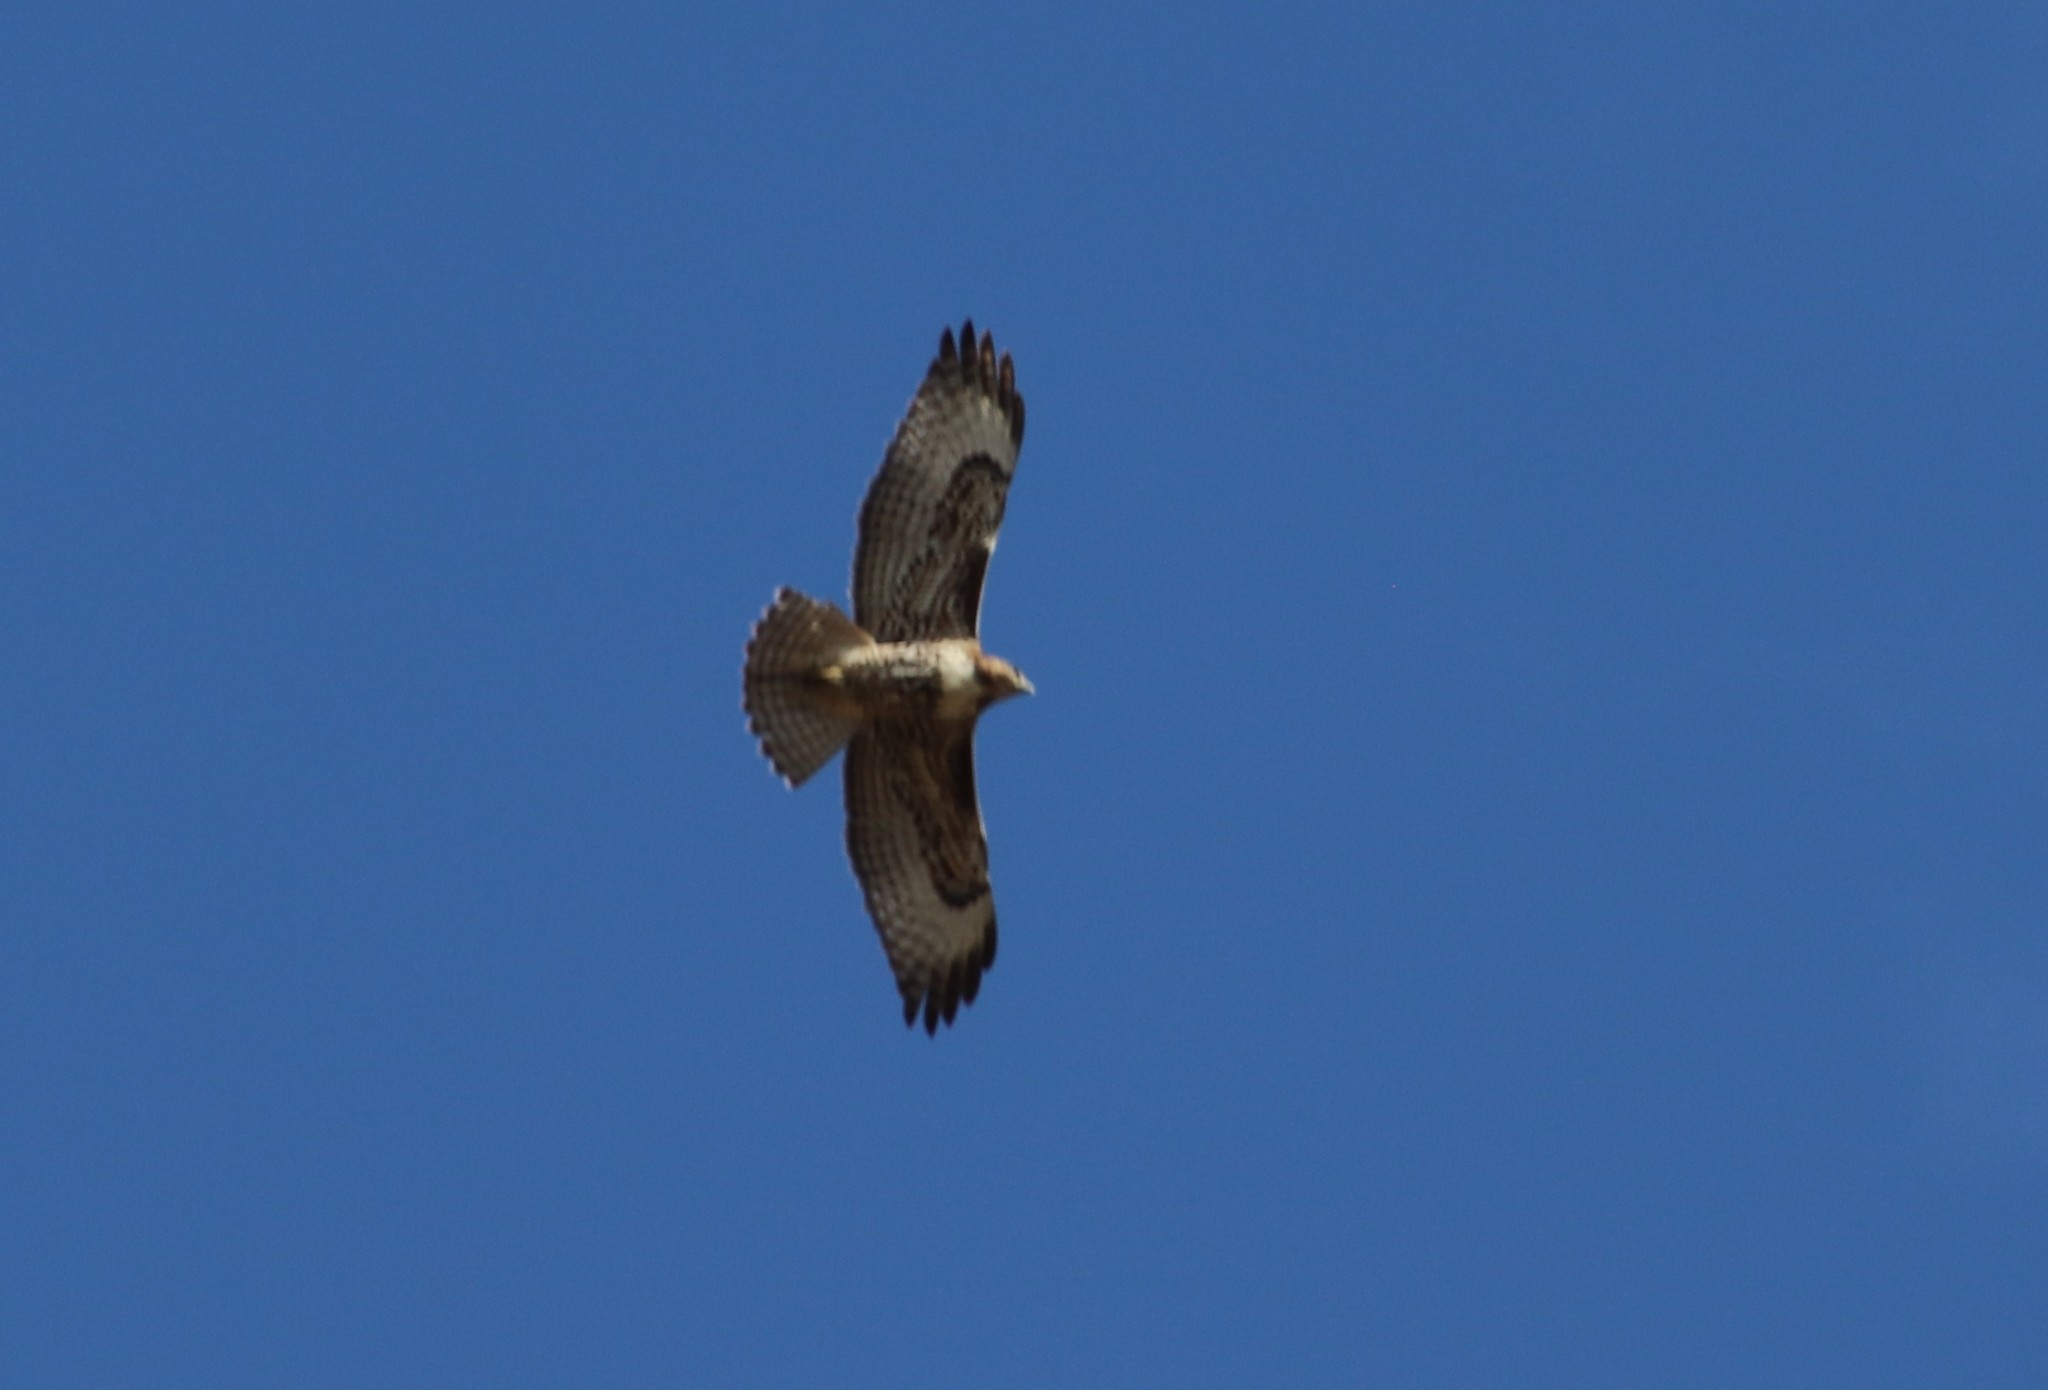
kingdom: Animalia
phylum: Chordata
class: Aves
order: Accipitriformes
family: Accipitridae
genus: Buteo
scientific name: Buteo jamaicensis
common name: Red-tailed hawk
